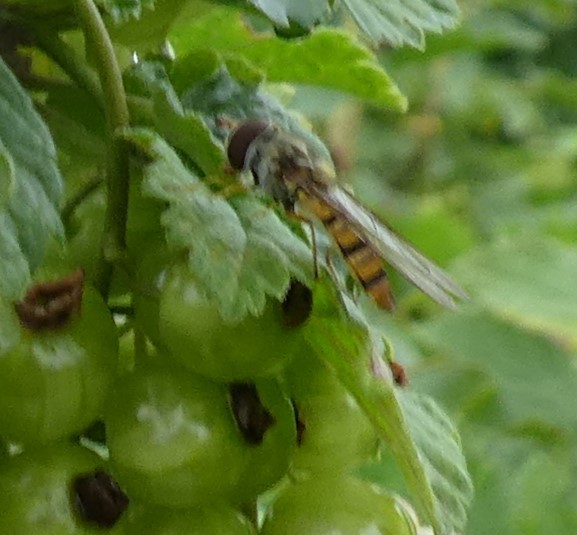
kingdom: Animalia
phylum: Arthropoda
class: Insecta
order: Diptera
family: Syrphidae
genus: Episyrphus
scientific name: Episyrphus balteatus
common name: Marmalade hoverfly
